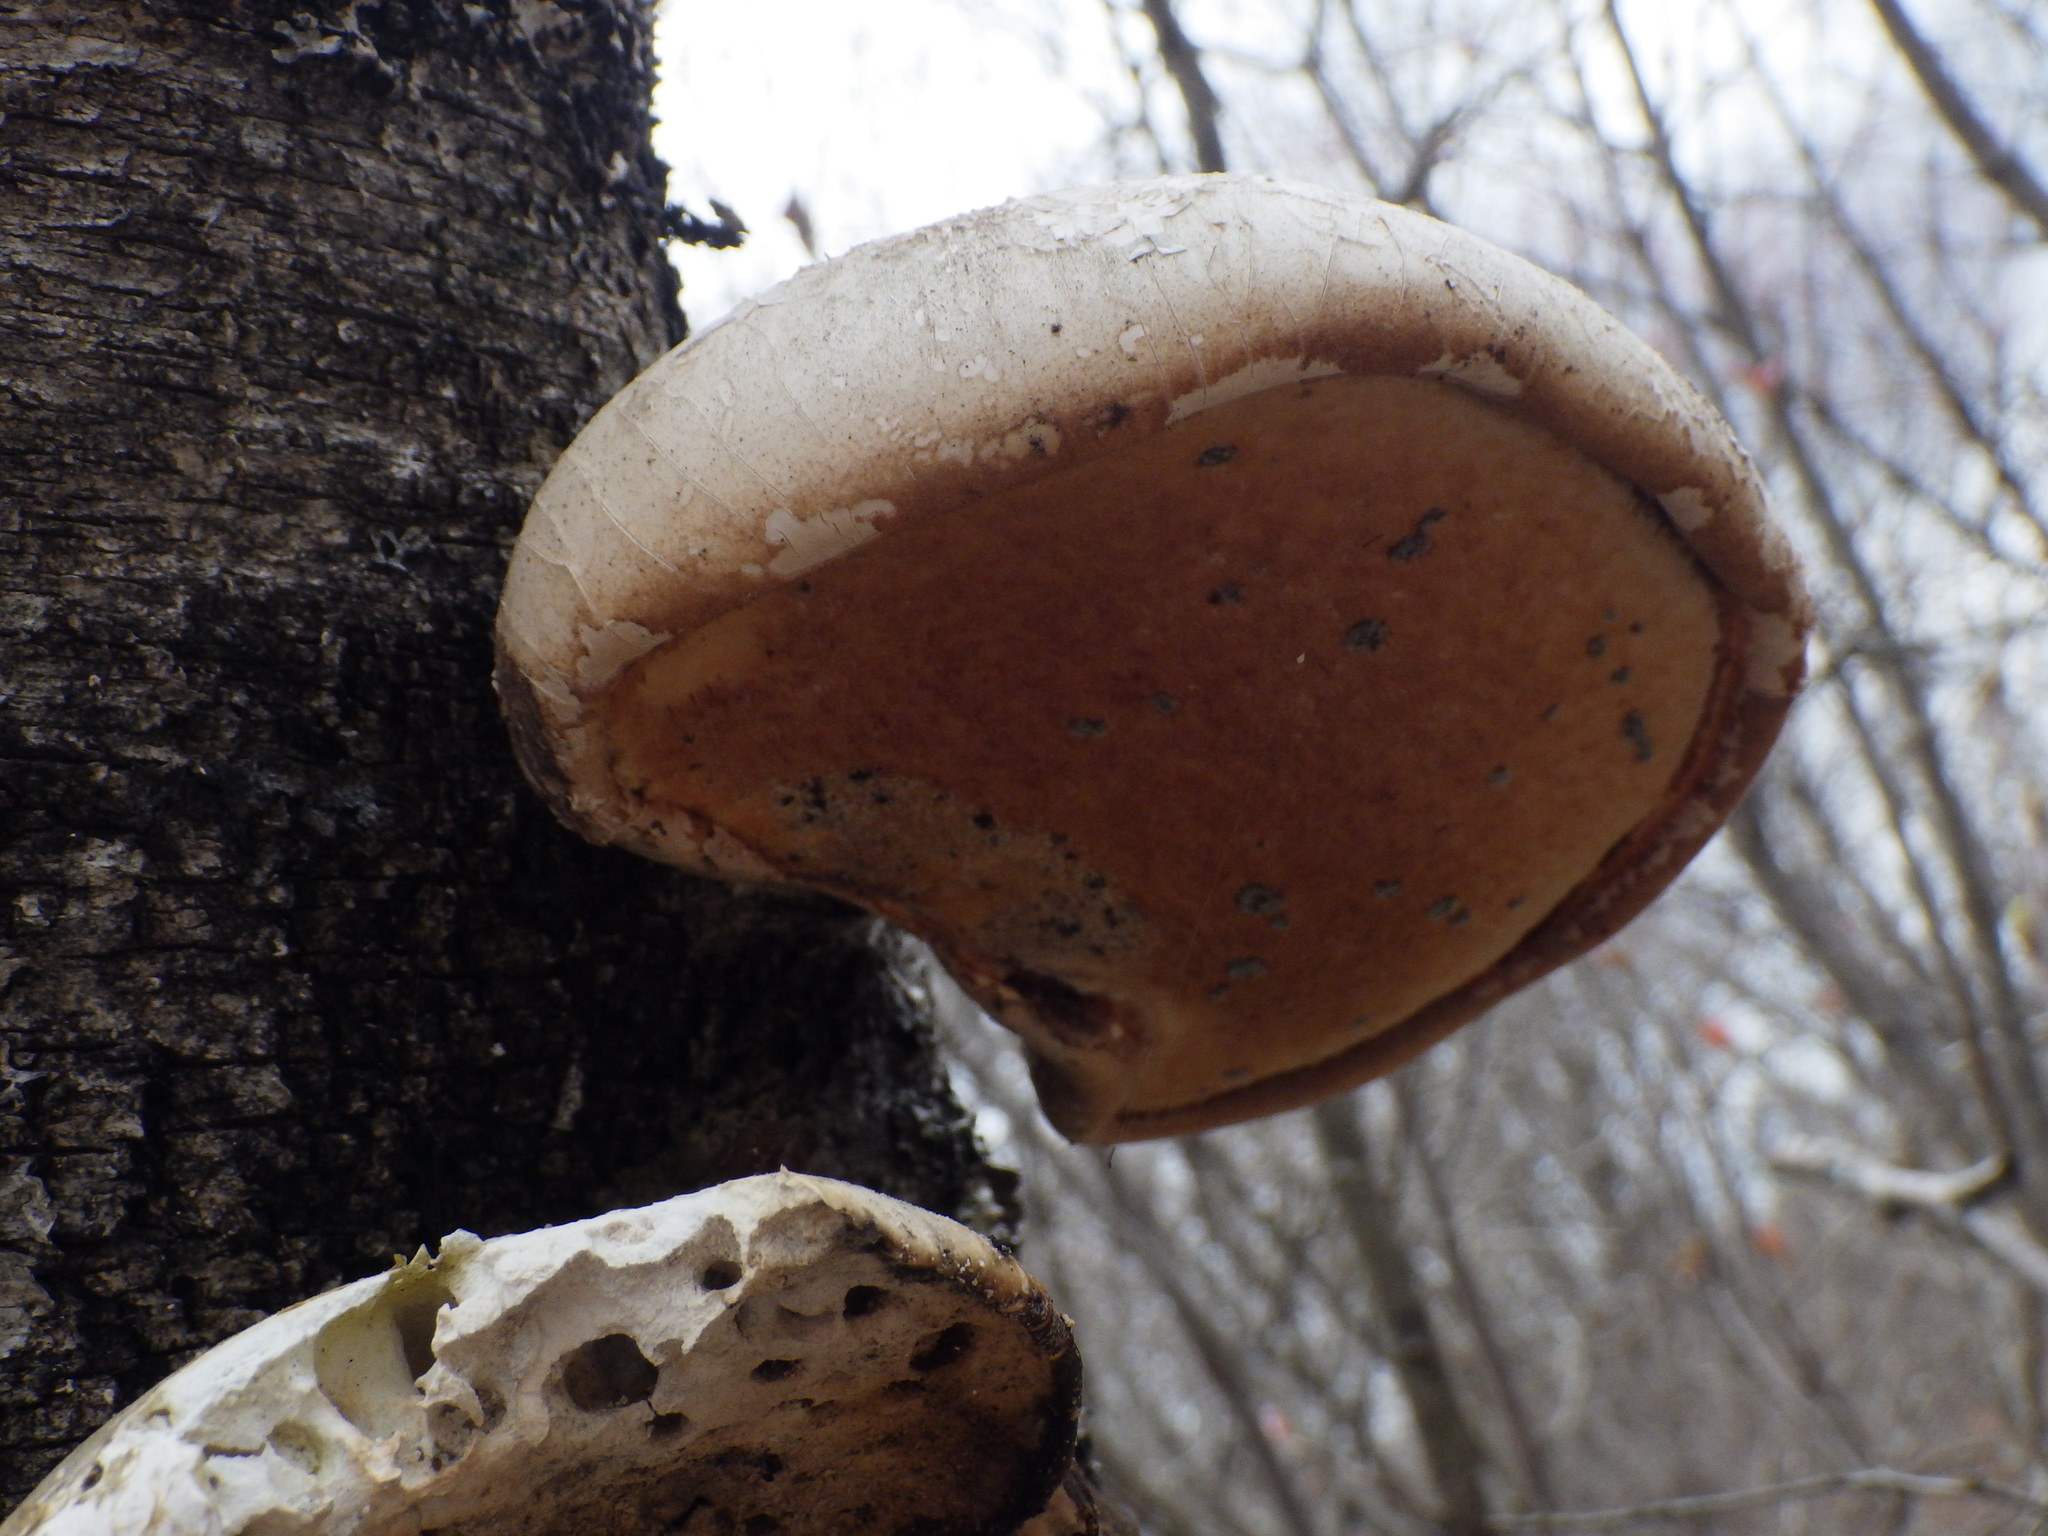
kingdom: Fungi
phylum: Basidiomycota
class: Agaricomycetes
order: Polyporales
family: Fomitopsidaceae
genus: Fomitopsis
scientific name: Fomitopsis betulina
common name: Birch polypore
